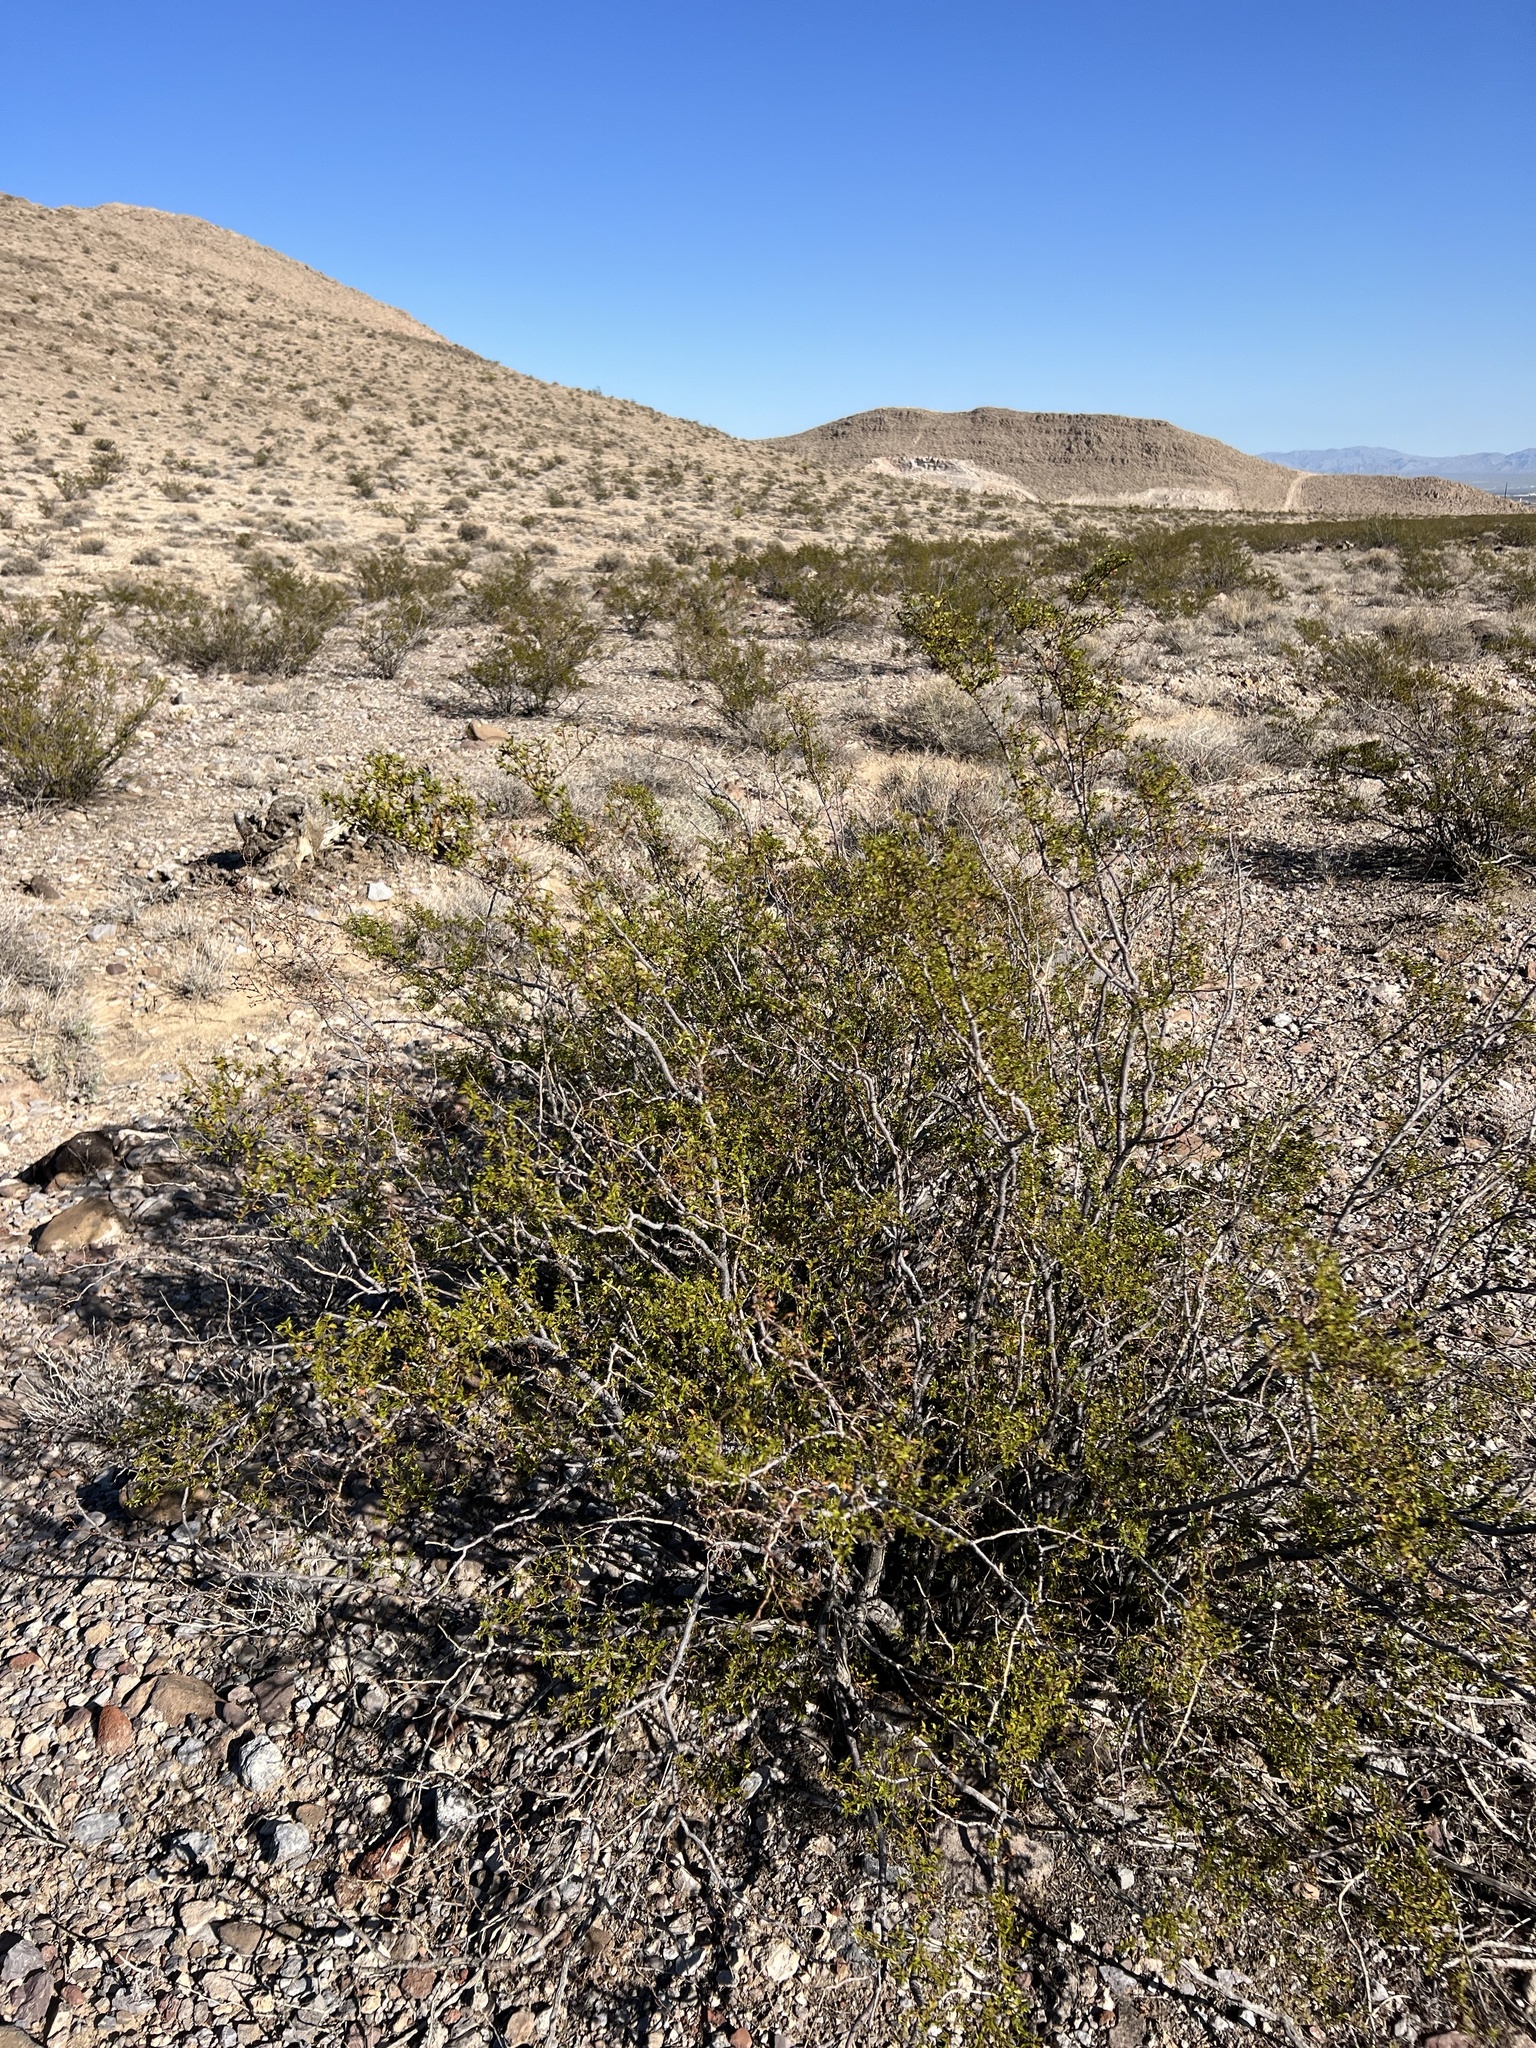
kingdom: Plantae
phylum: Tracheophyta
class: Magnoliopsida
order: Zygophyllales
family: Zygophyllaceae
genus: Larrea
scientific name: Larrea tridentata
